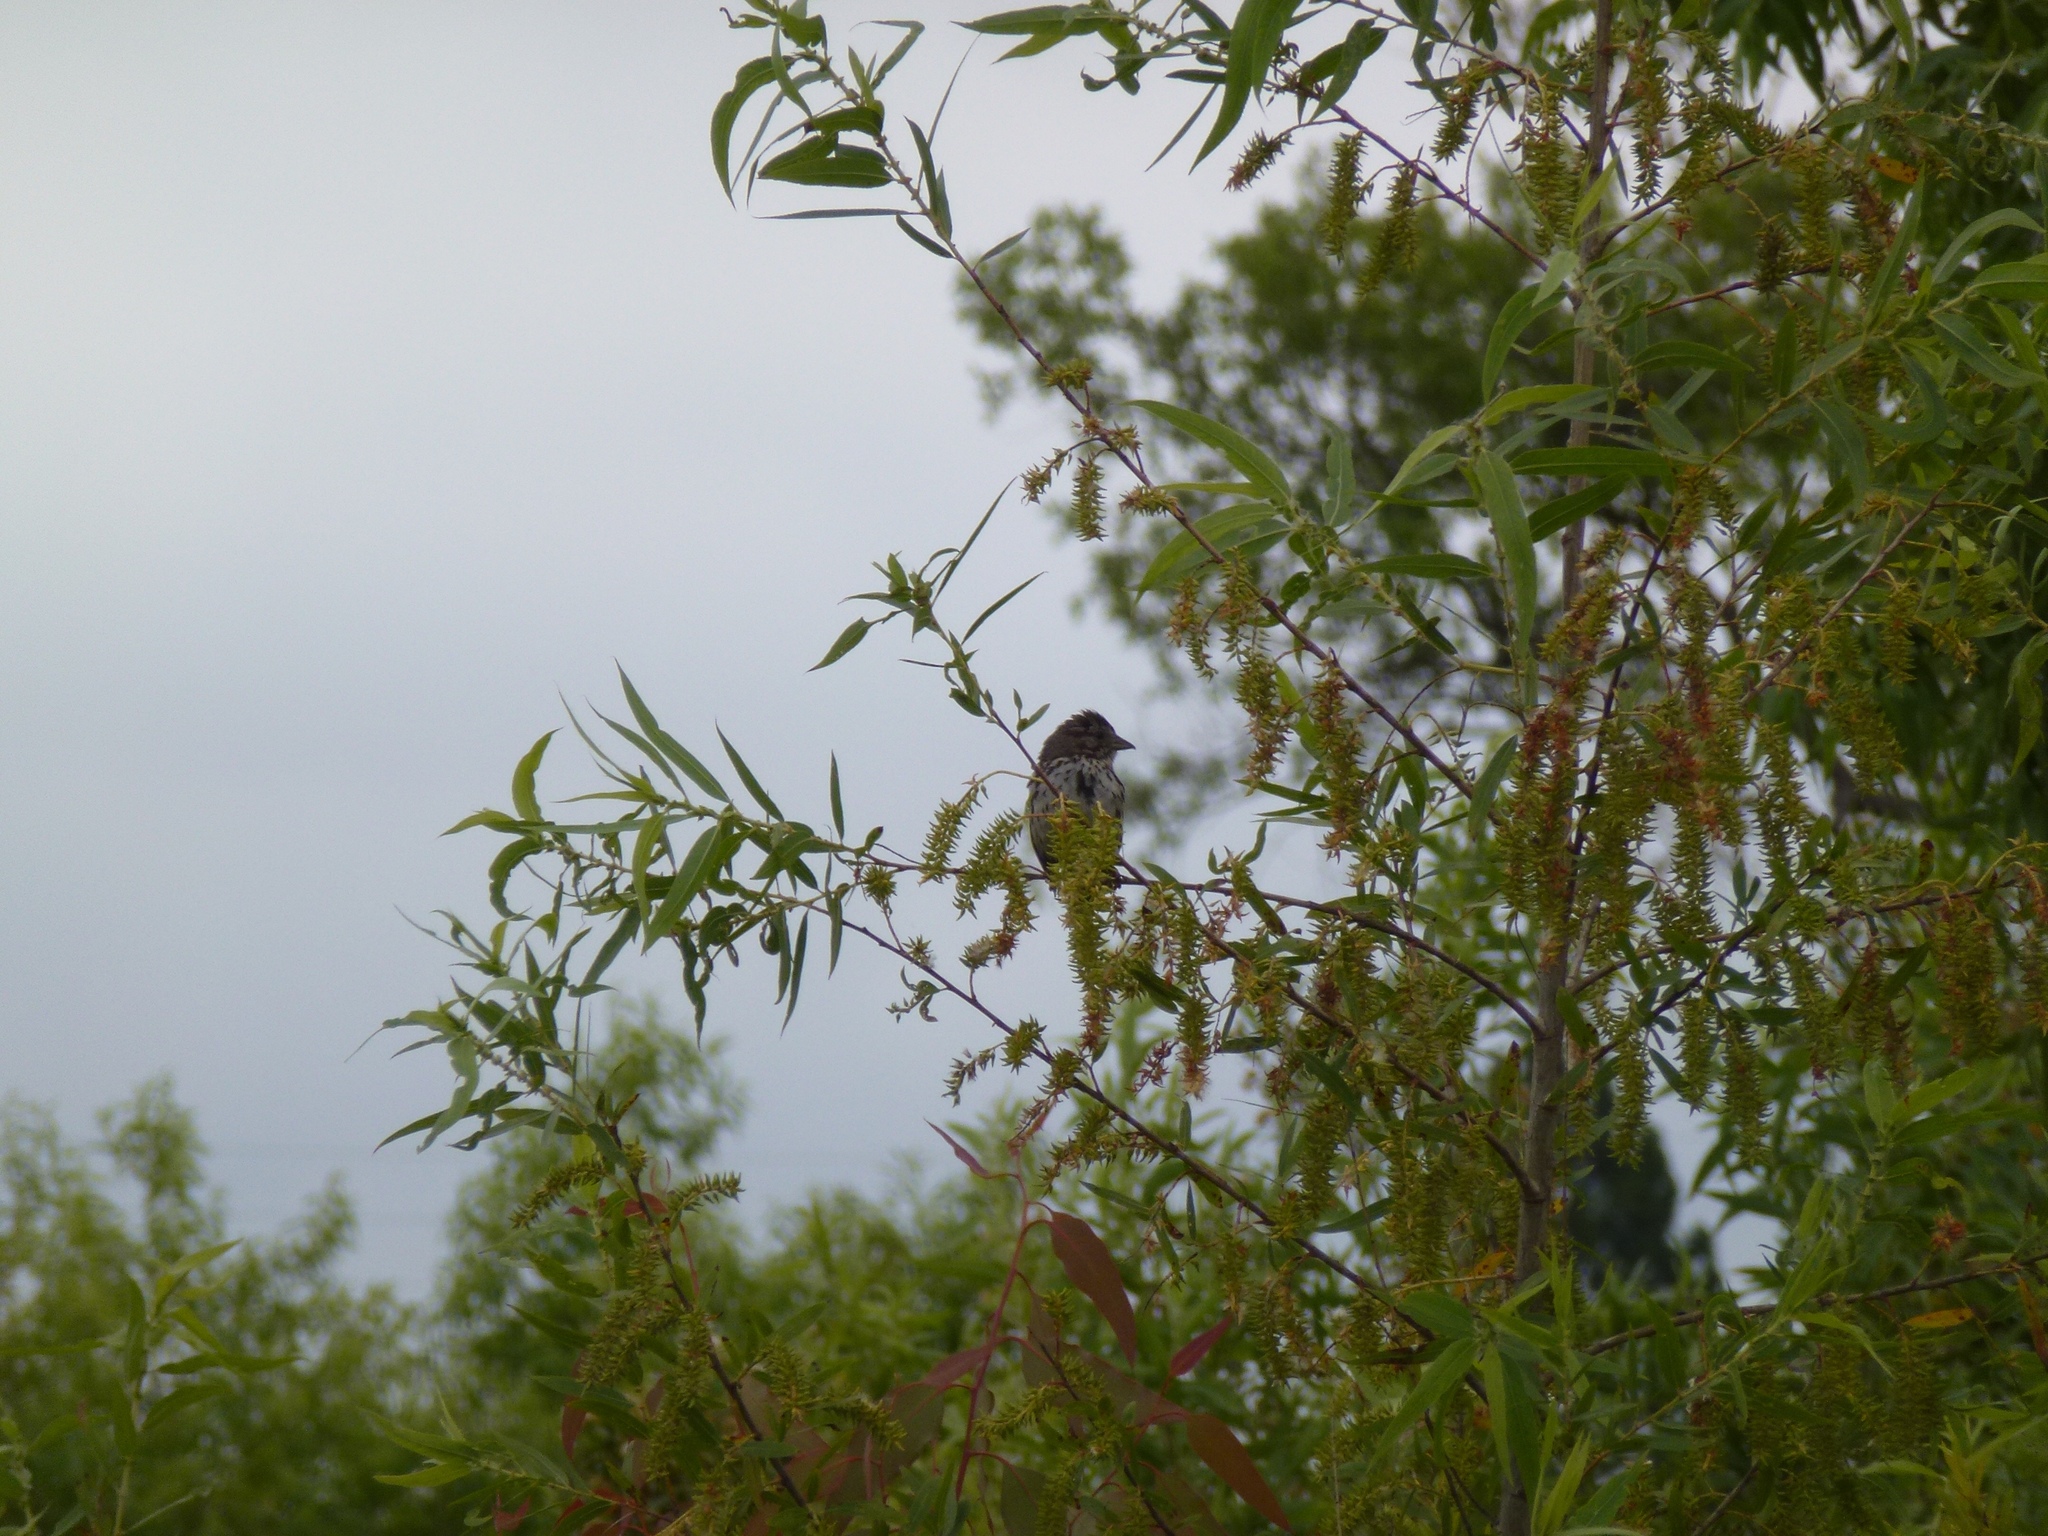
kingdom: Animalia
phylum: Chordata
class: Aves
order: Passeriformes
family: Passerellidae
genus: Melospiza
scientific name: Melospiza melodia
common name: Song sparrow
